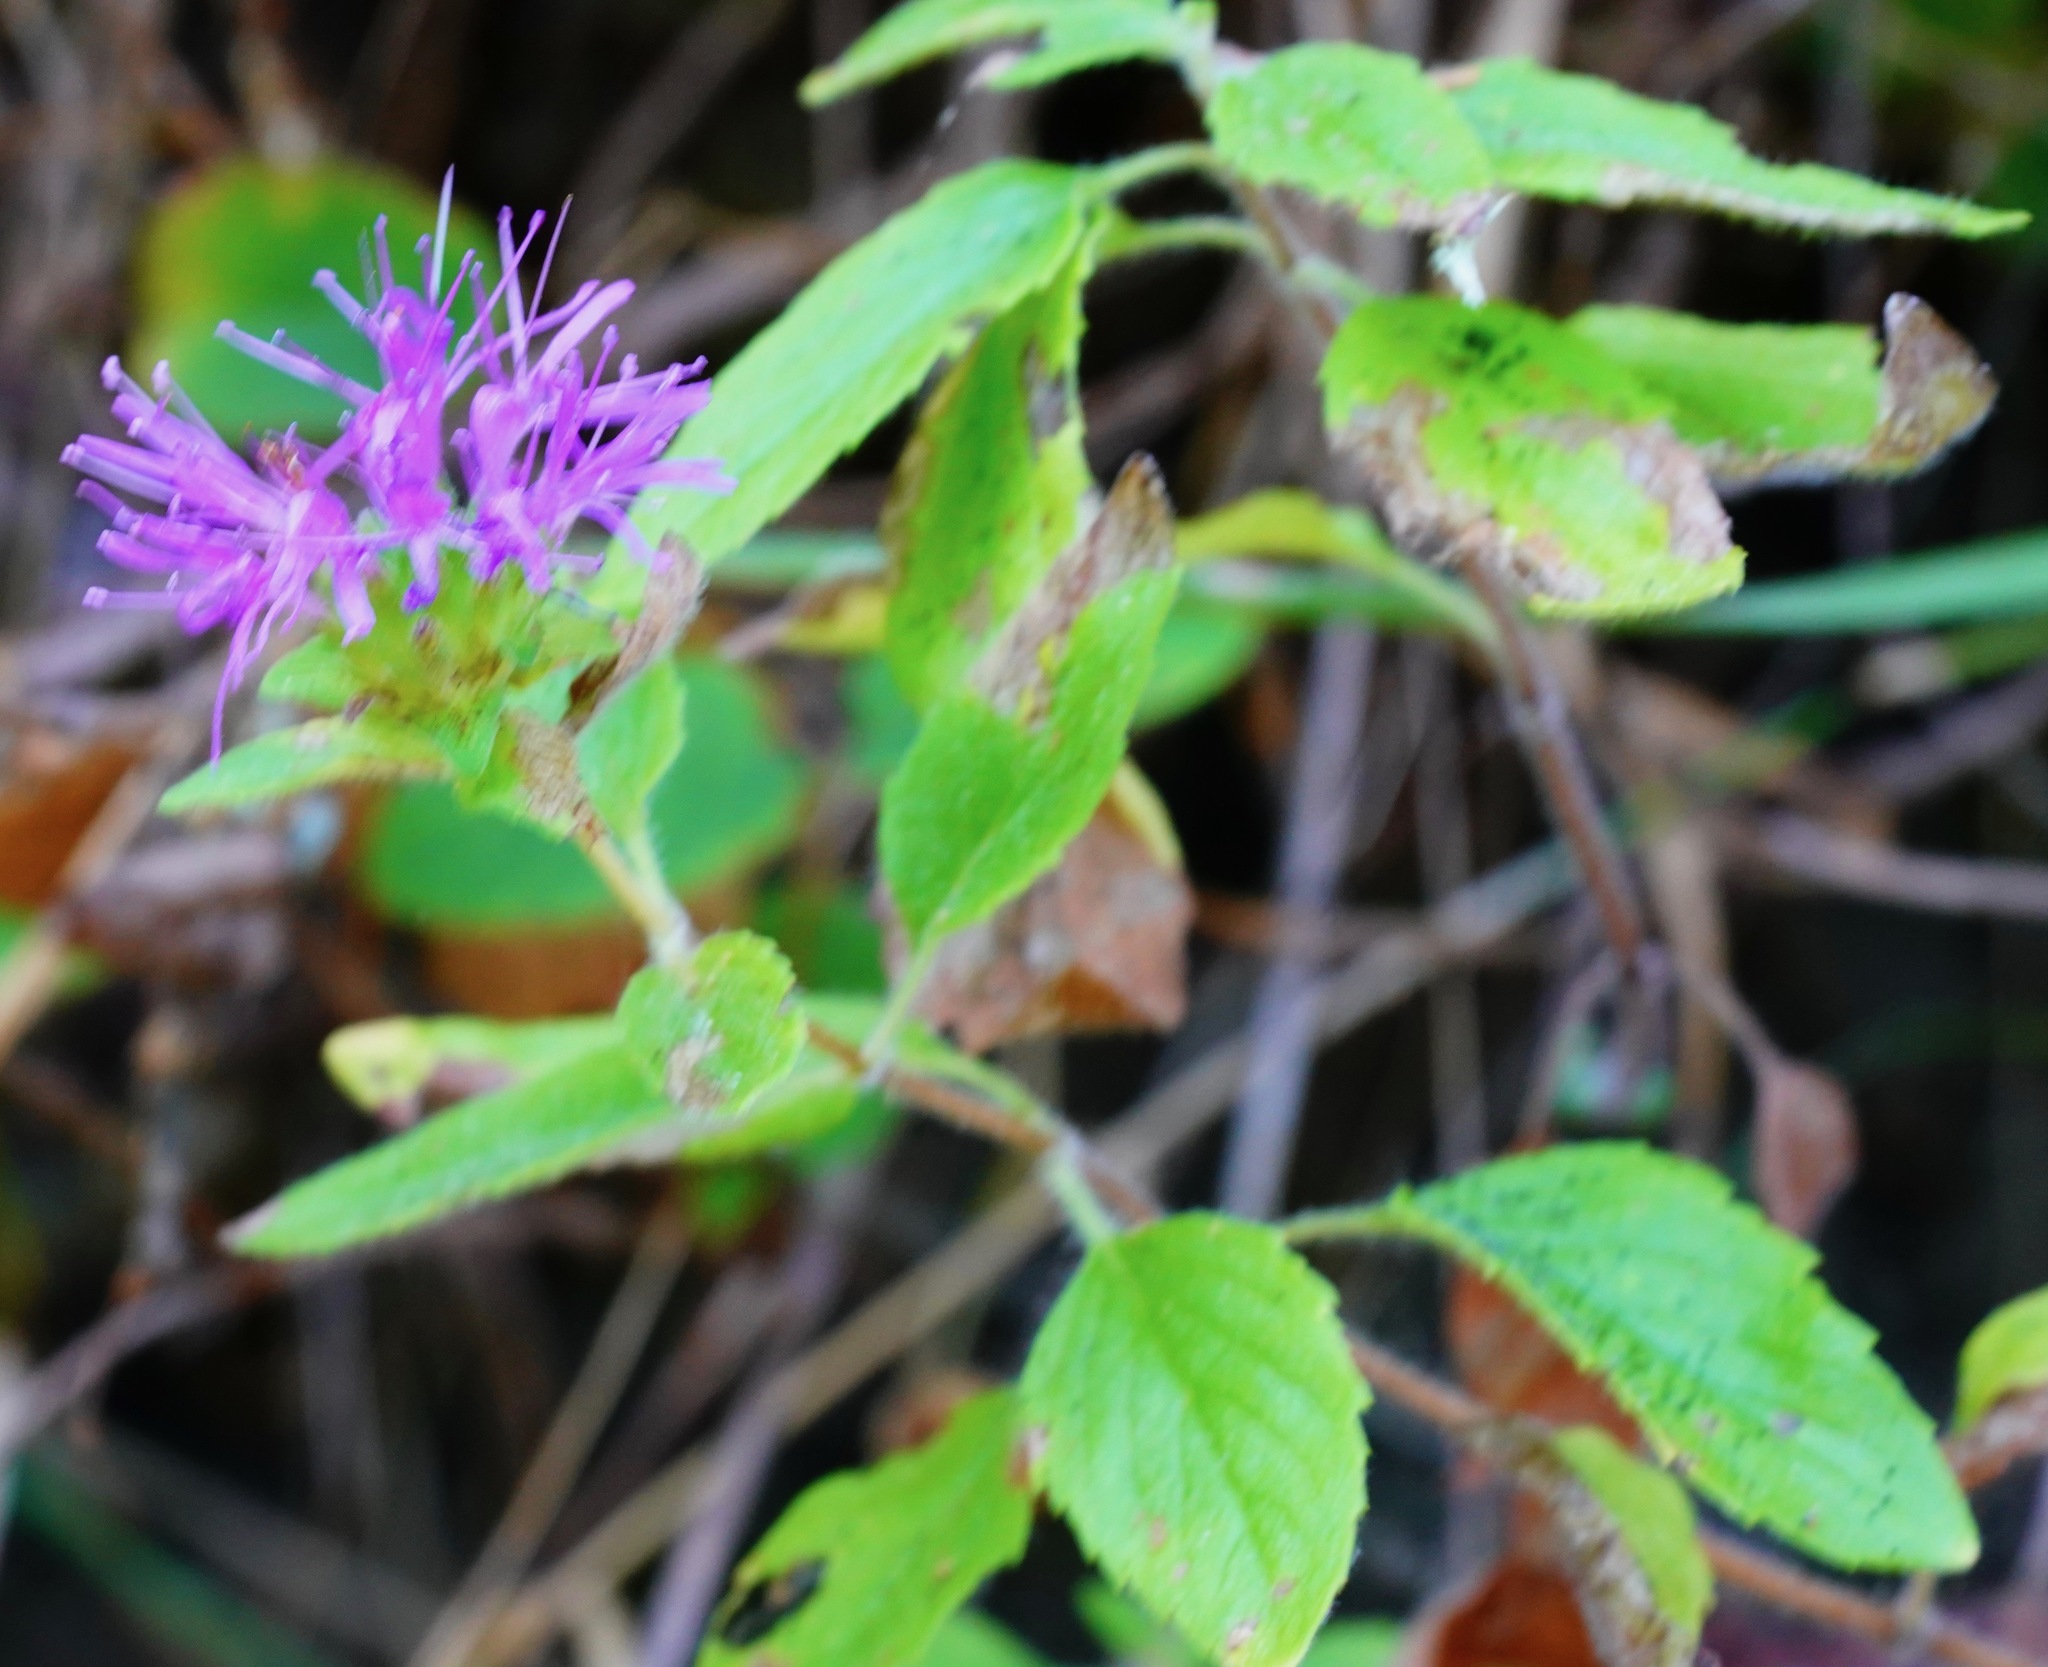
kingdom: Plantae
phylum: Tracheophyta
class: Magnoliopsida
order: Lamiales
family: Lamiaceae
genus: Monardella
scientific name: Monardella odoratissima
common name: Pacific monardella
